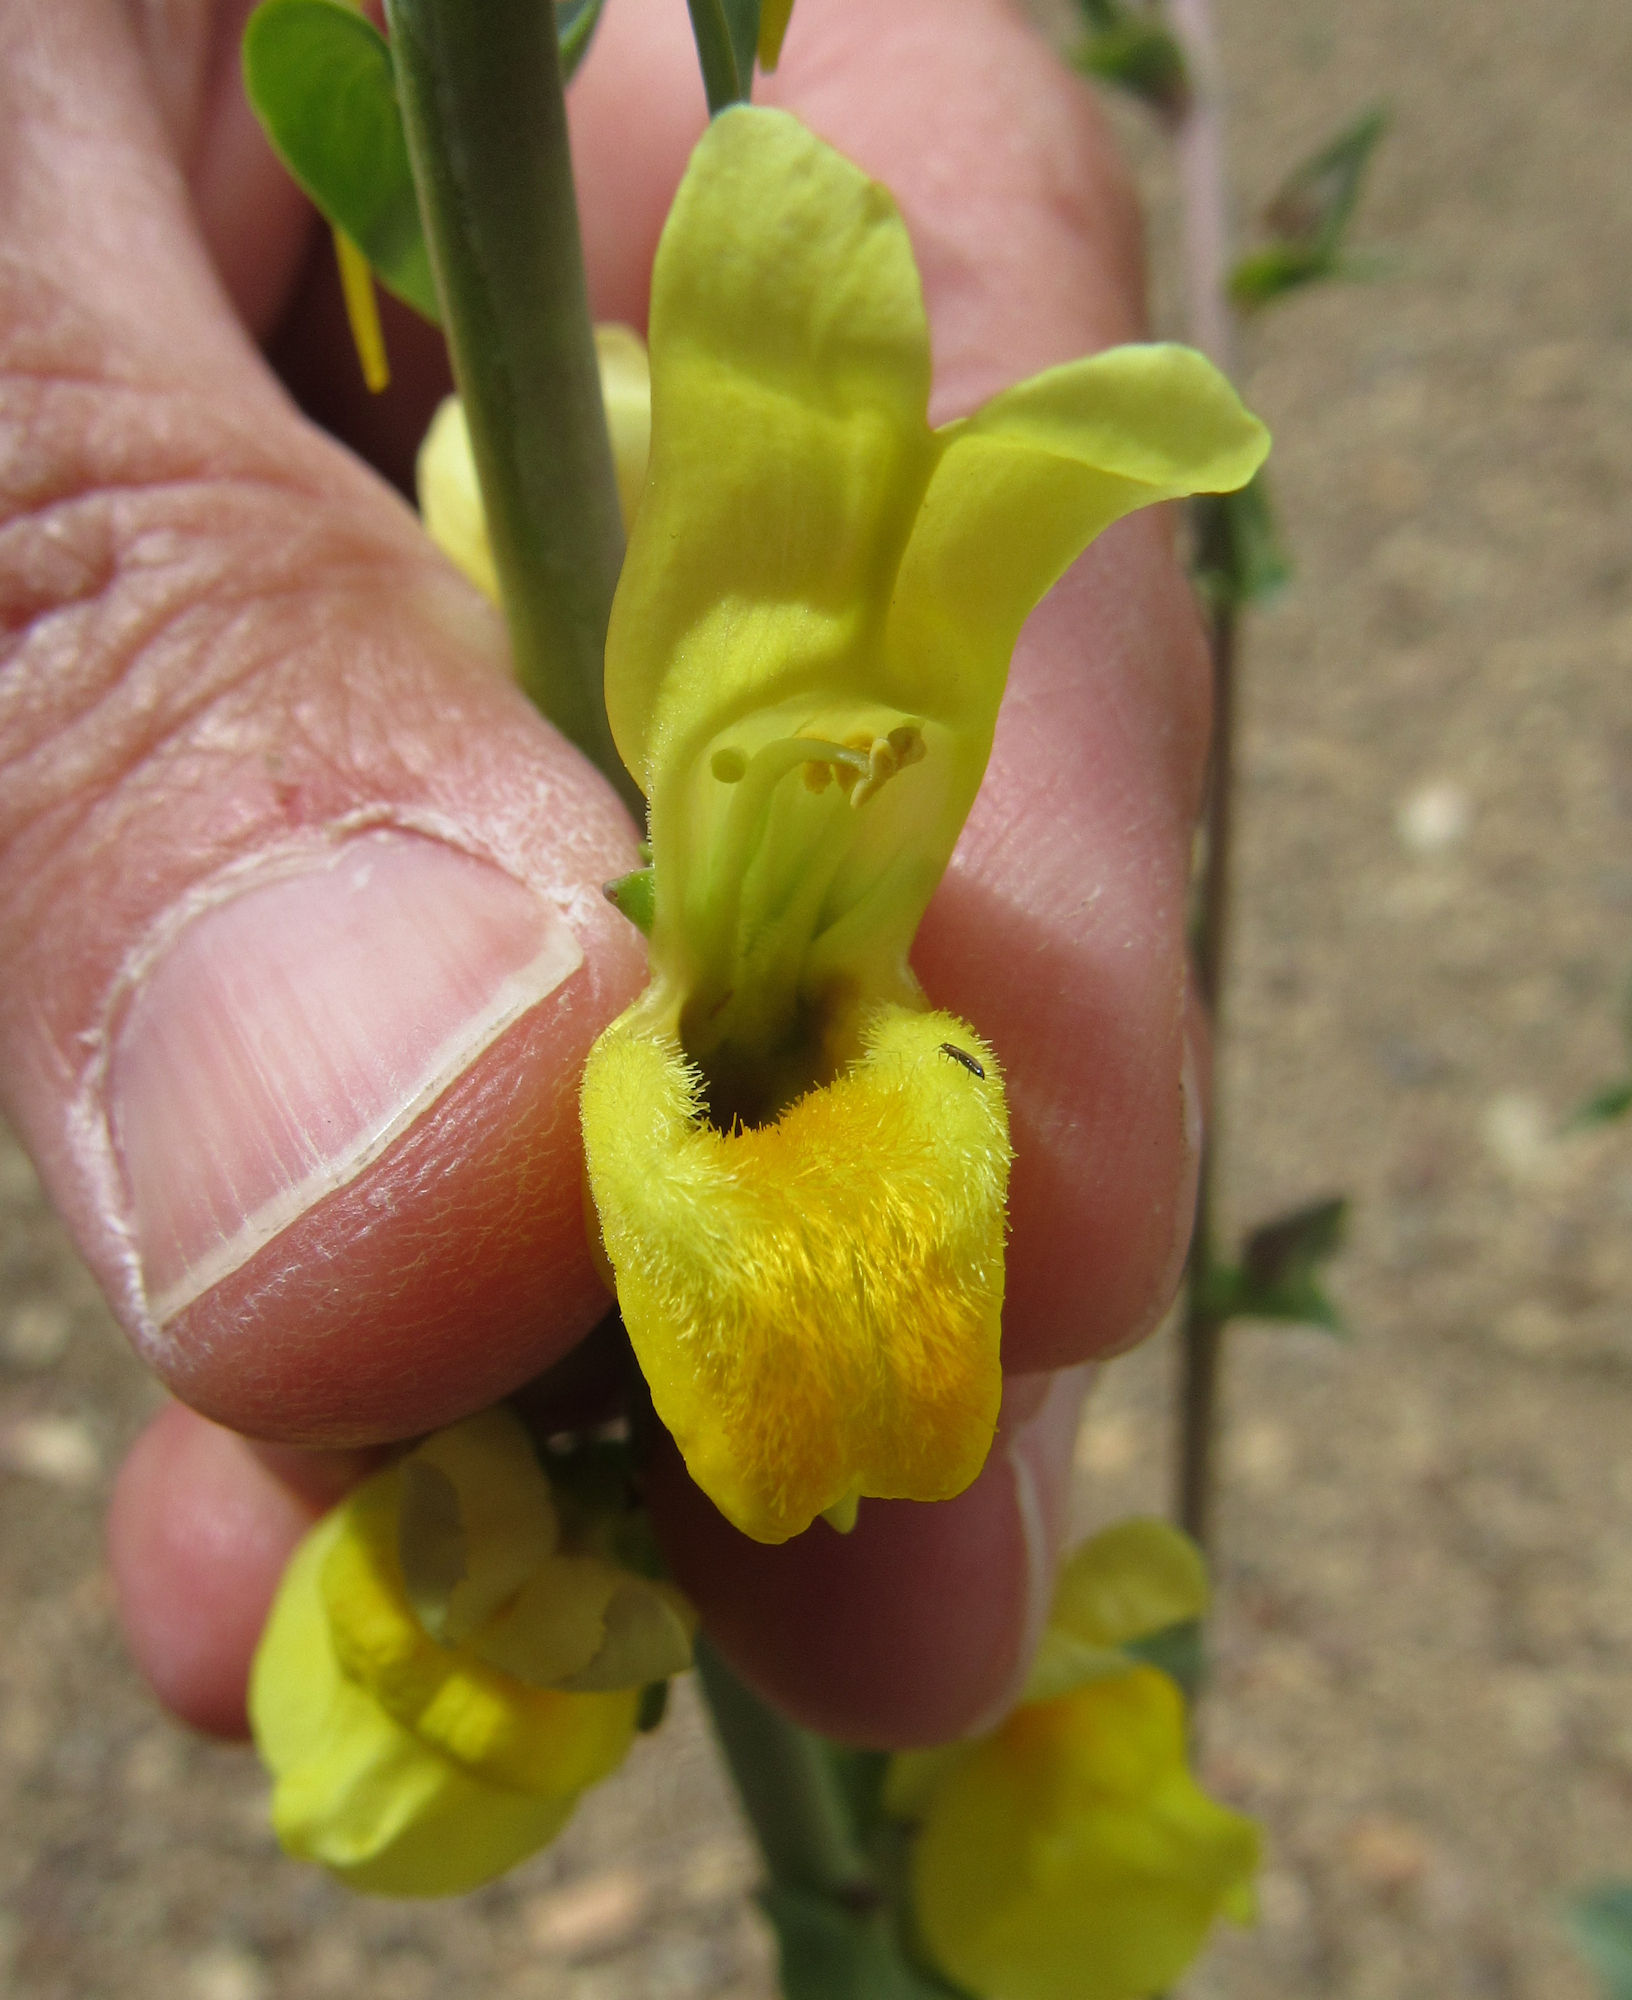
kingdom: Plantae
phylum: Tracheophyta
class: Magnoliopsida
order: Lamiales
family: Plantaginaceae
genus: Linaria
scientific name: Linaria dalmatica
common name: Dalmatian toadflax
